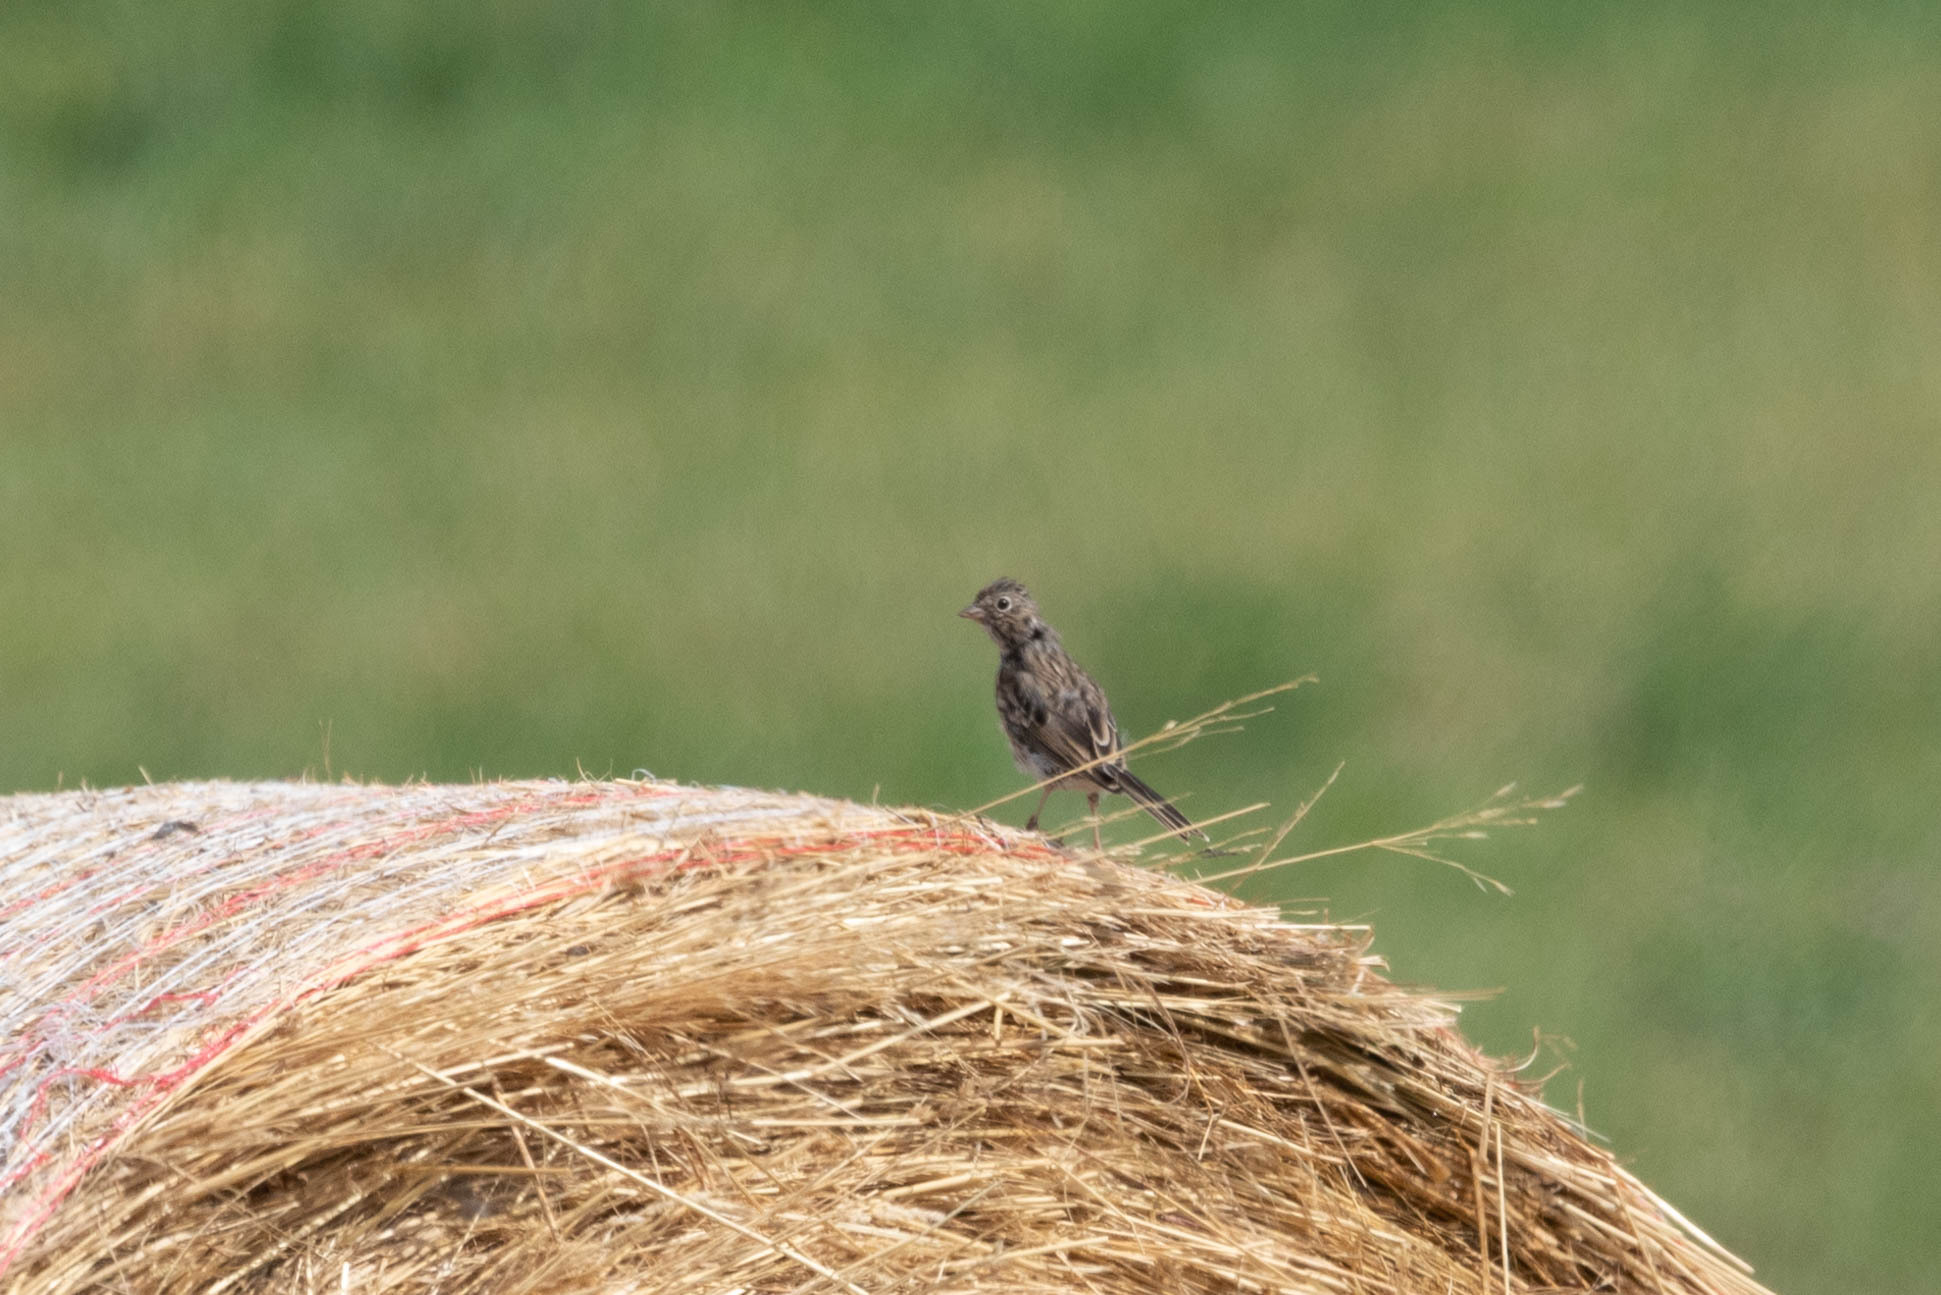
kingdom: Animalia
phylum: Chordata
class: Aves
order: Passeriformes
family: Passerellidae
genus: Pooecetes
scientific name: Pooecetes gramineus
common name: Vesper sparrow
